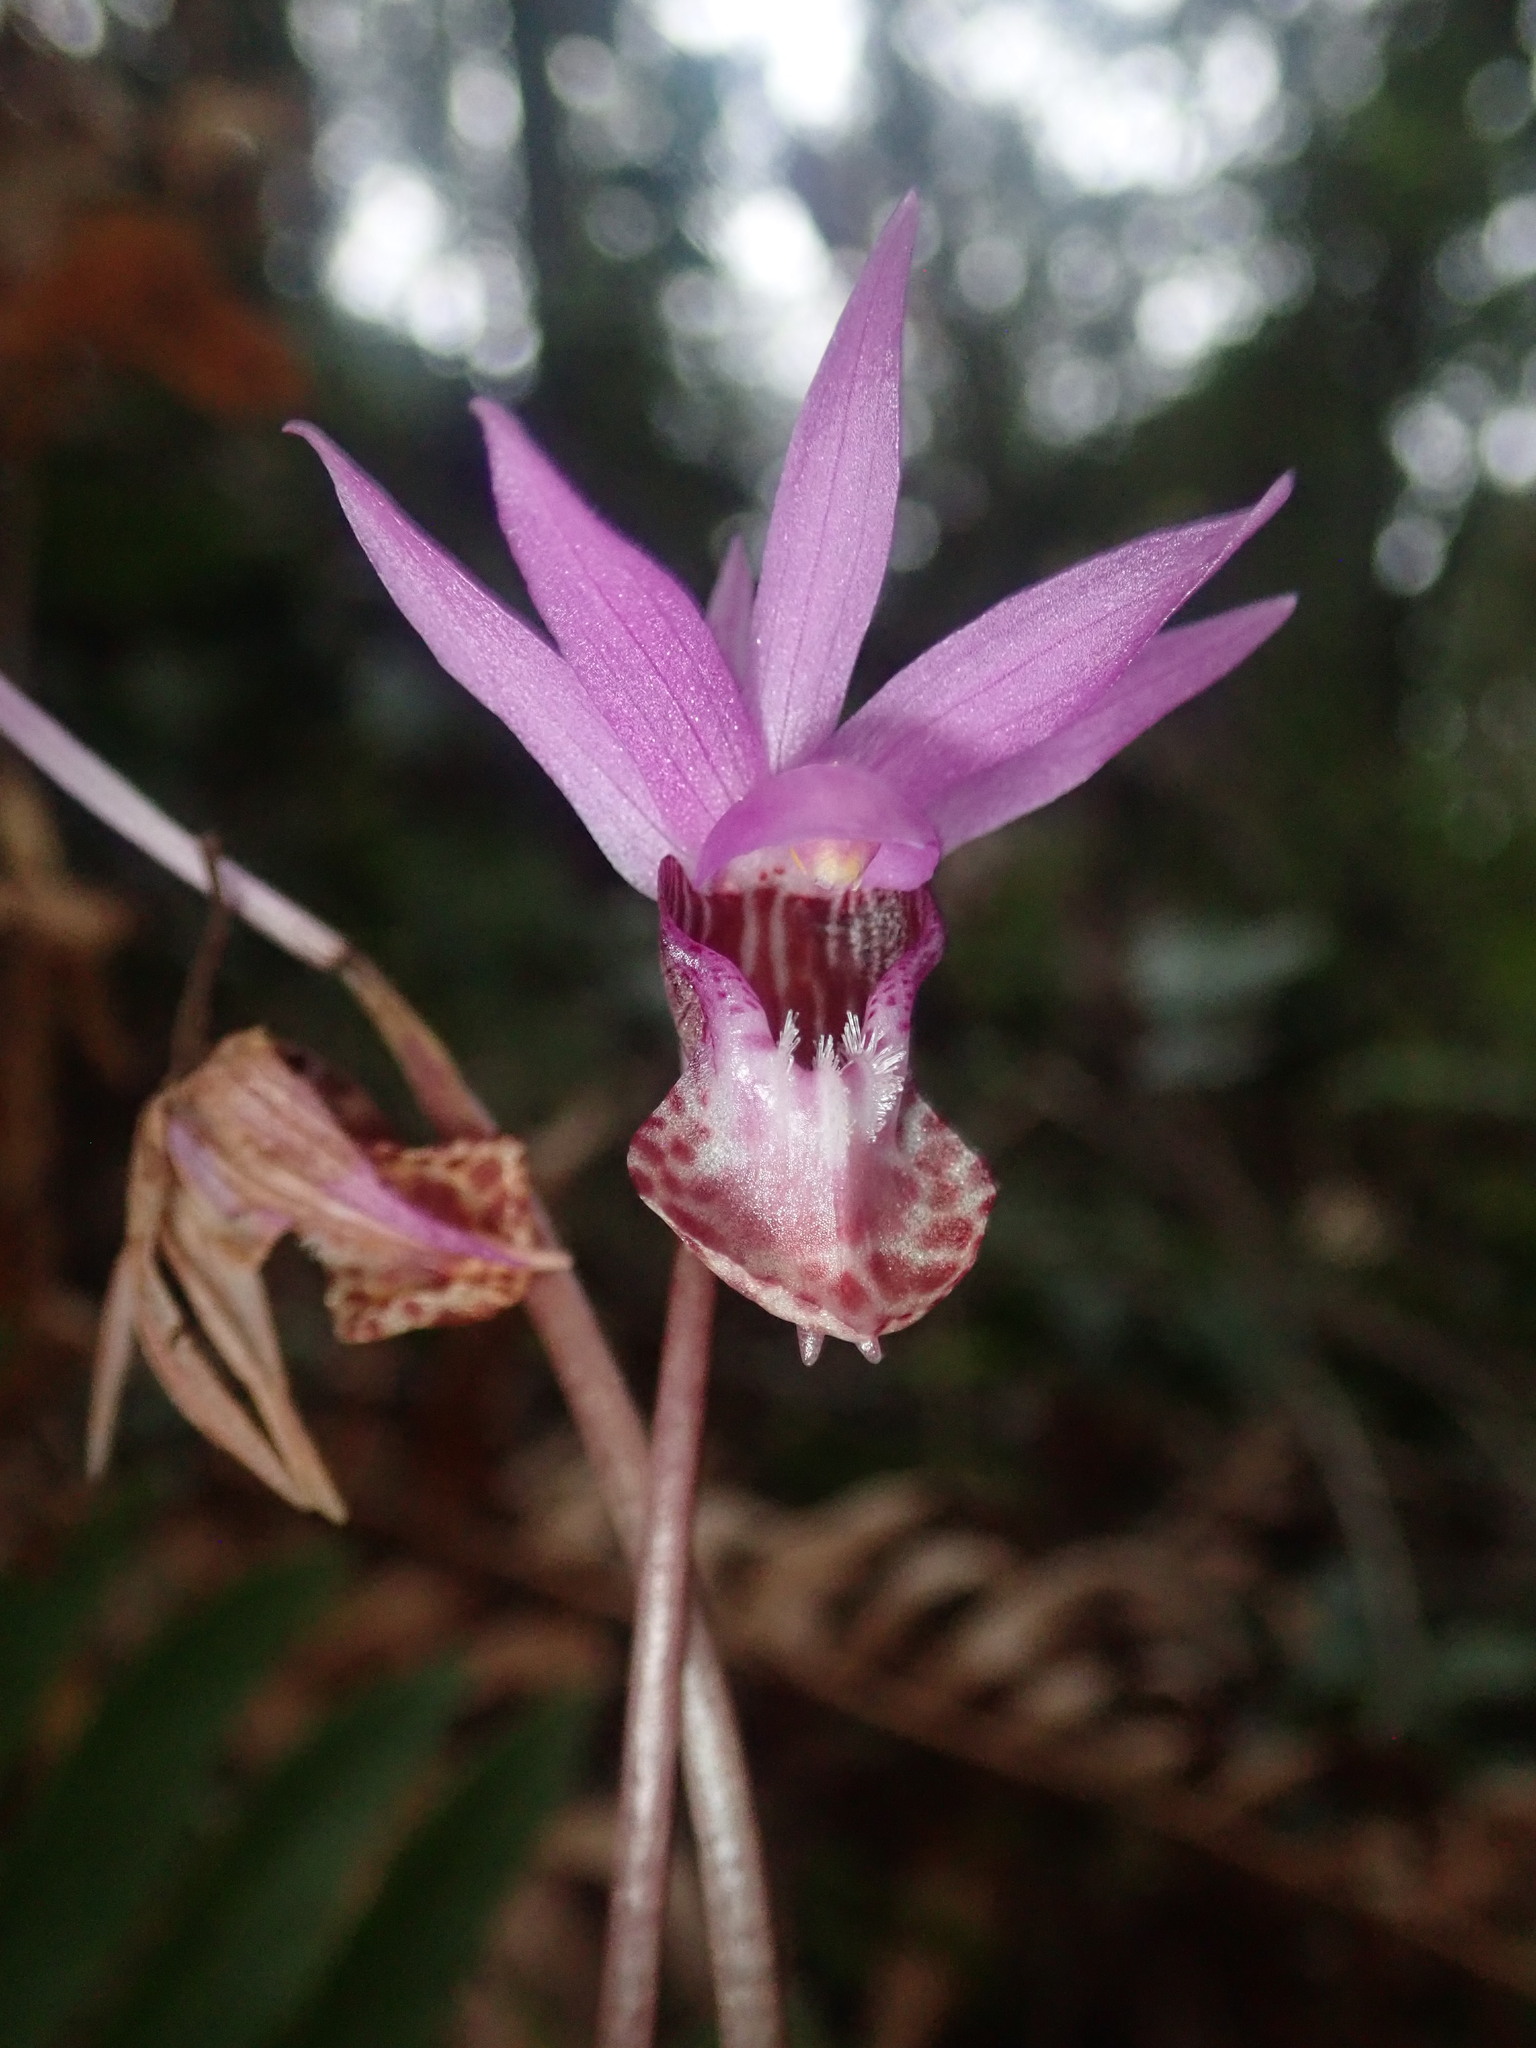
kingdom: Plantae
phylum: Tracheophyta
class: Liliopsida
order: Asparagales
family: Orchidaceae
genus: Calypso
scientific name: Calypso bulbosa
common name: Calypso
